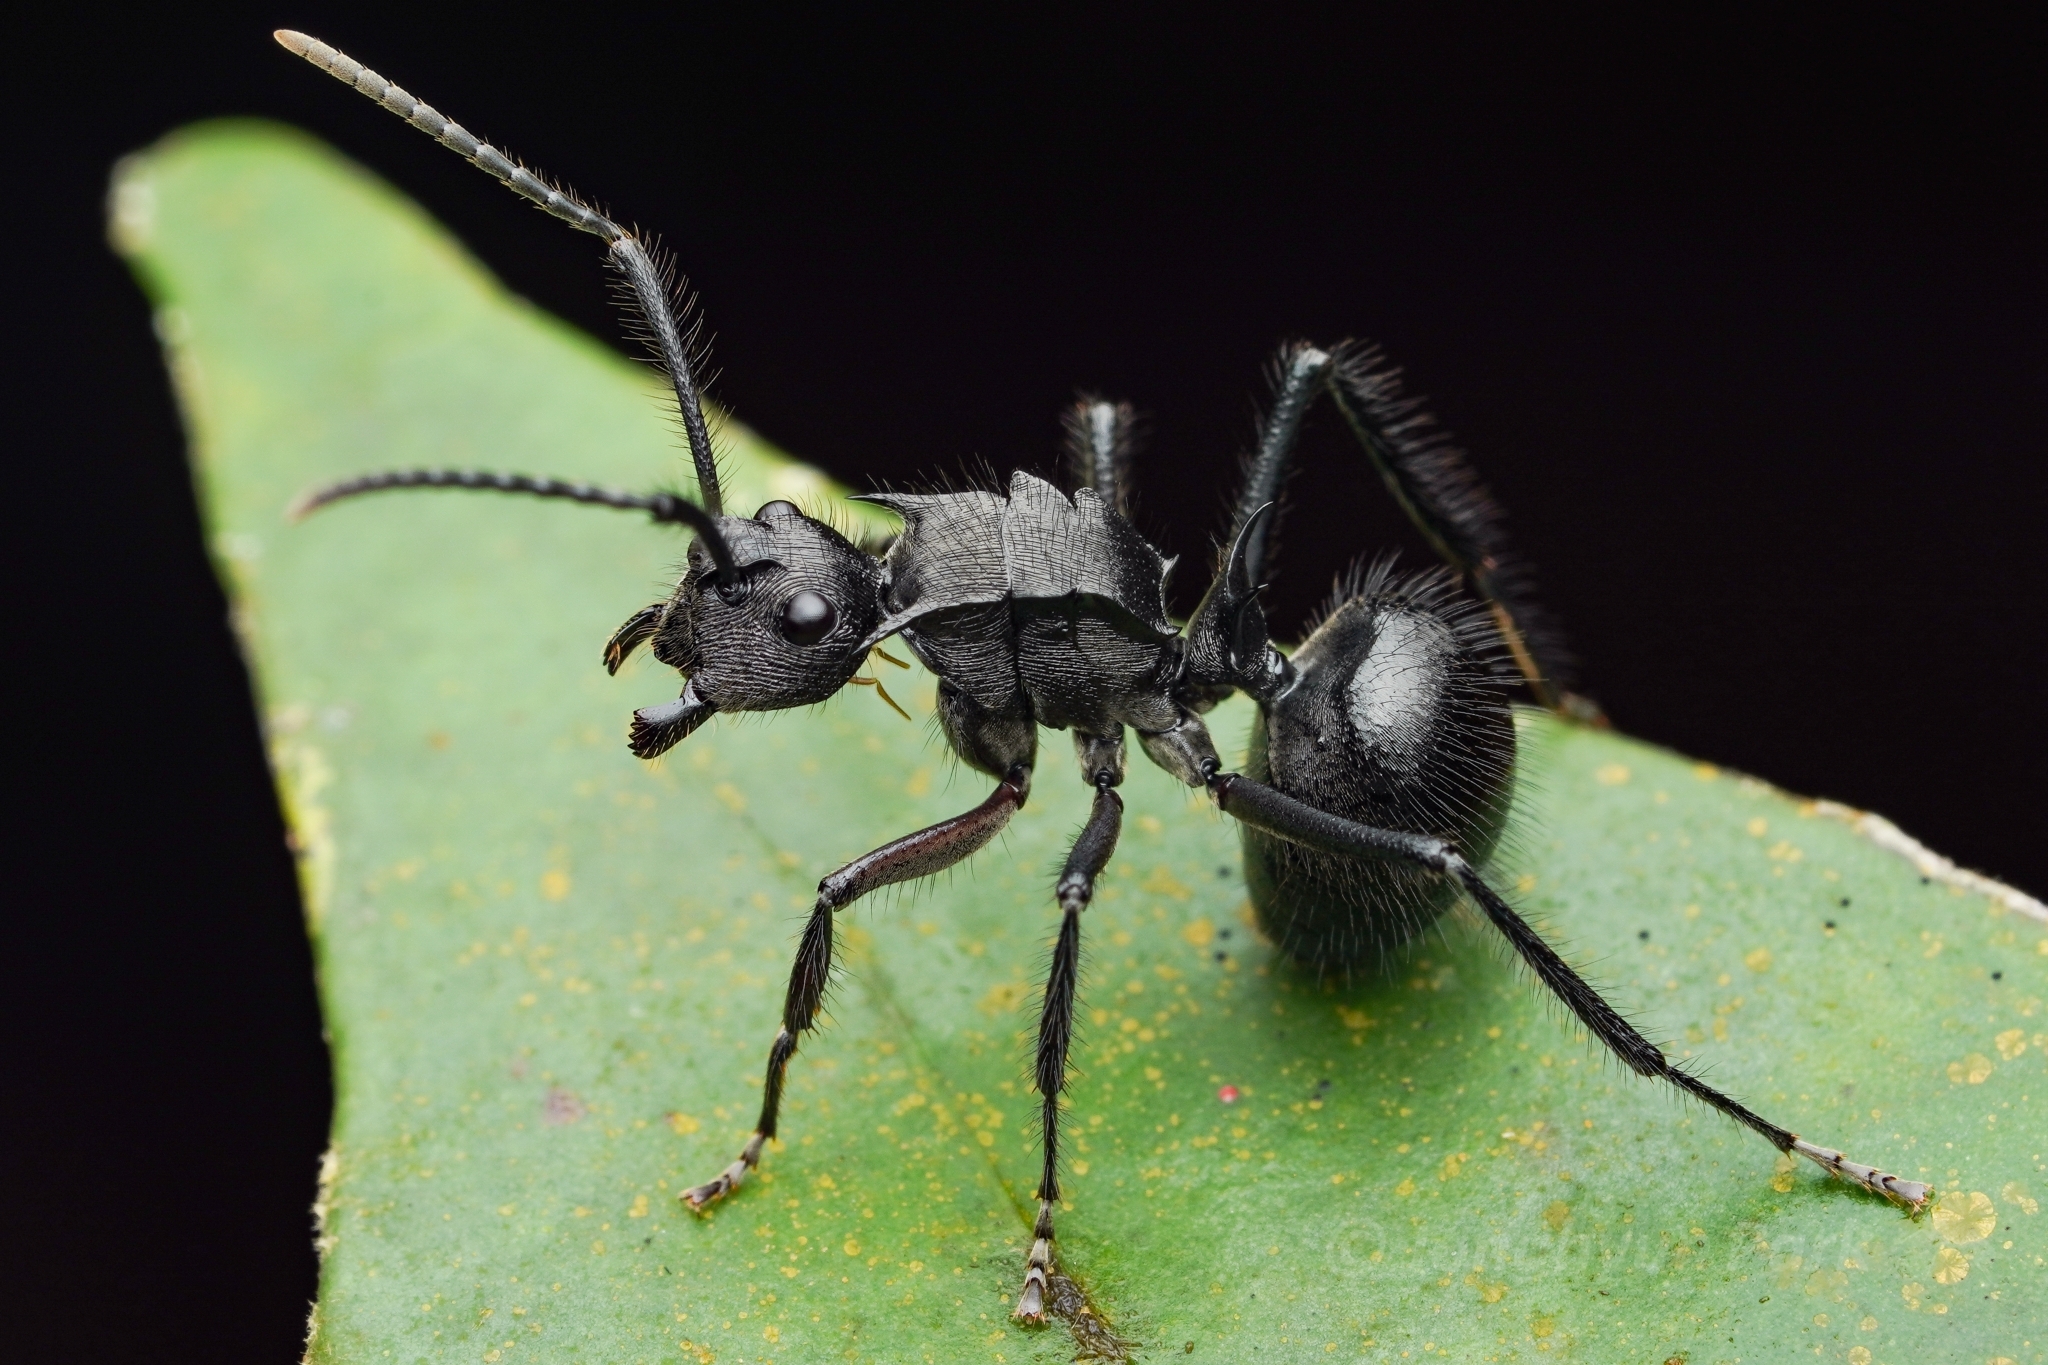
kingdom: Animalia
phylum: Arthropoda
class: Insecta
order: Hymenoptera
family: Formicidae
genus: Polyrhachis
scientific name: Polyrhachis striatorugosus
